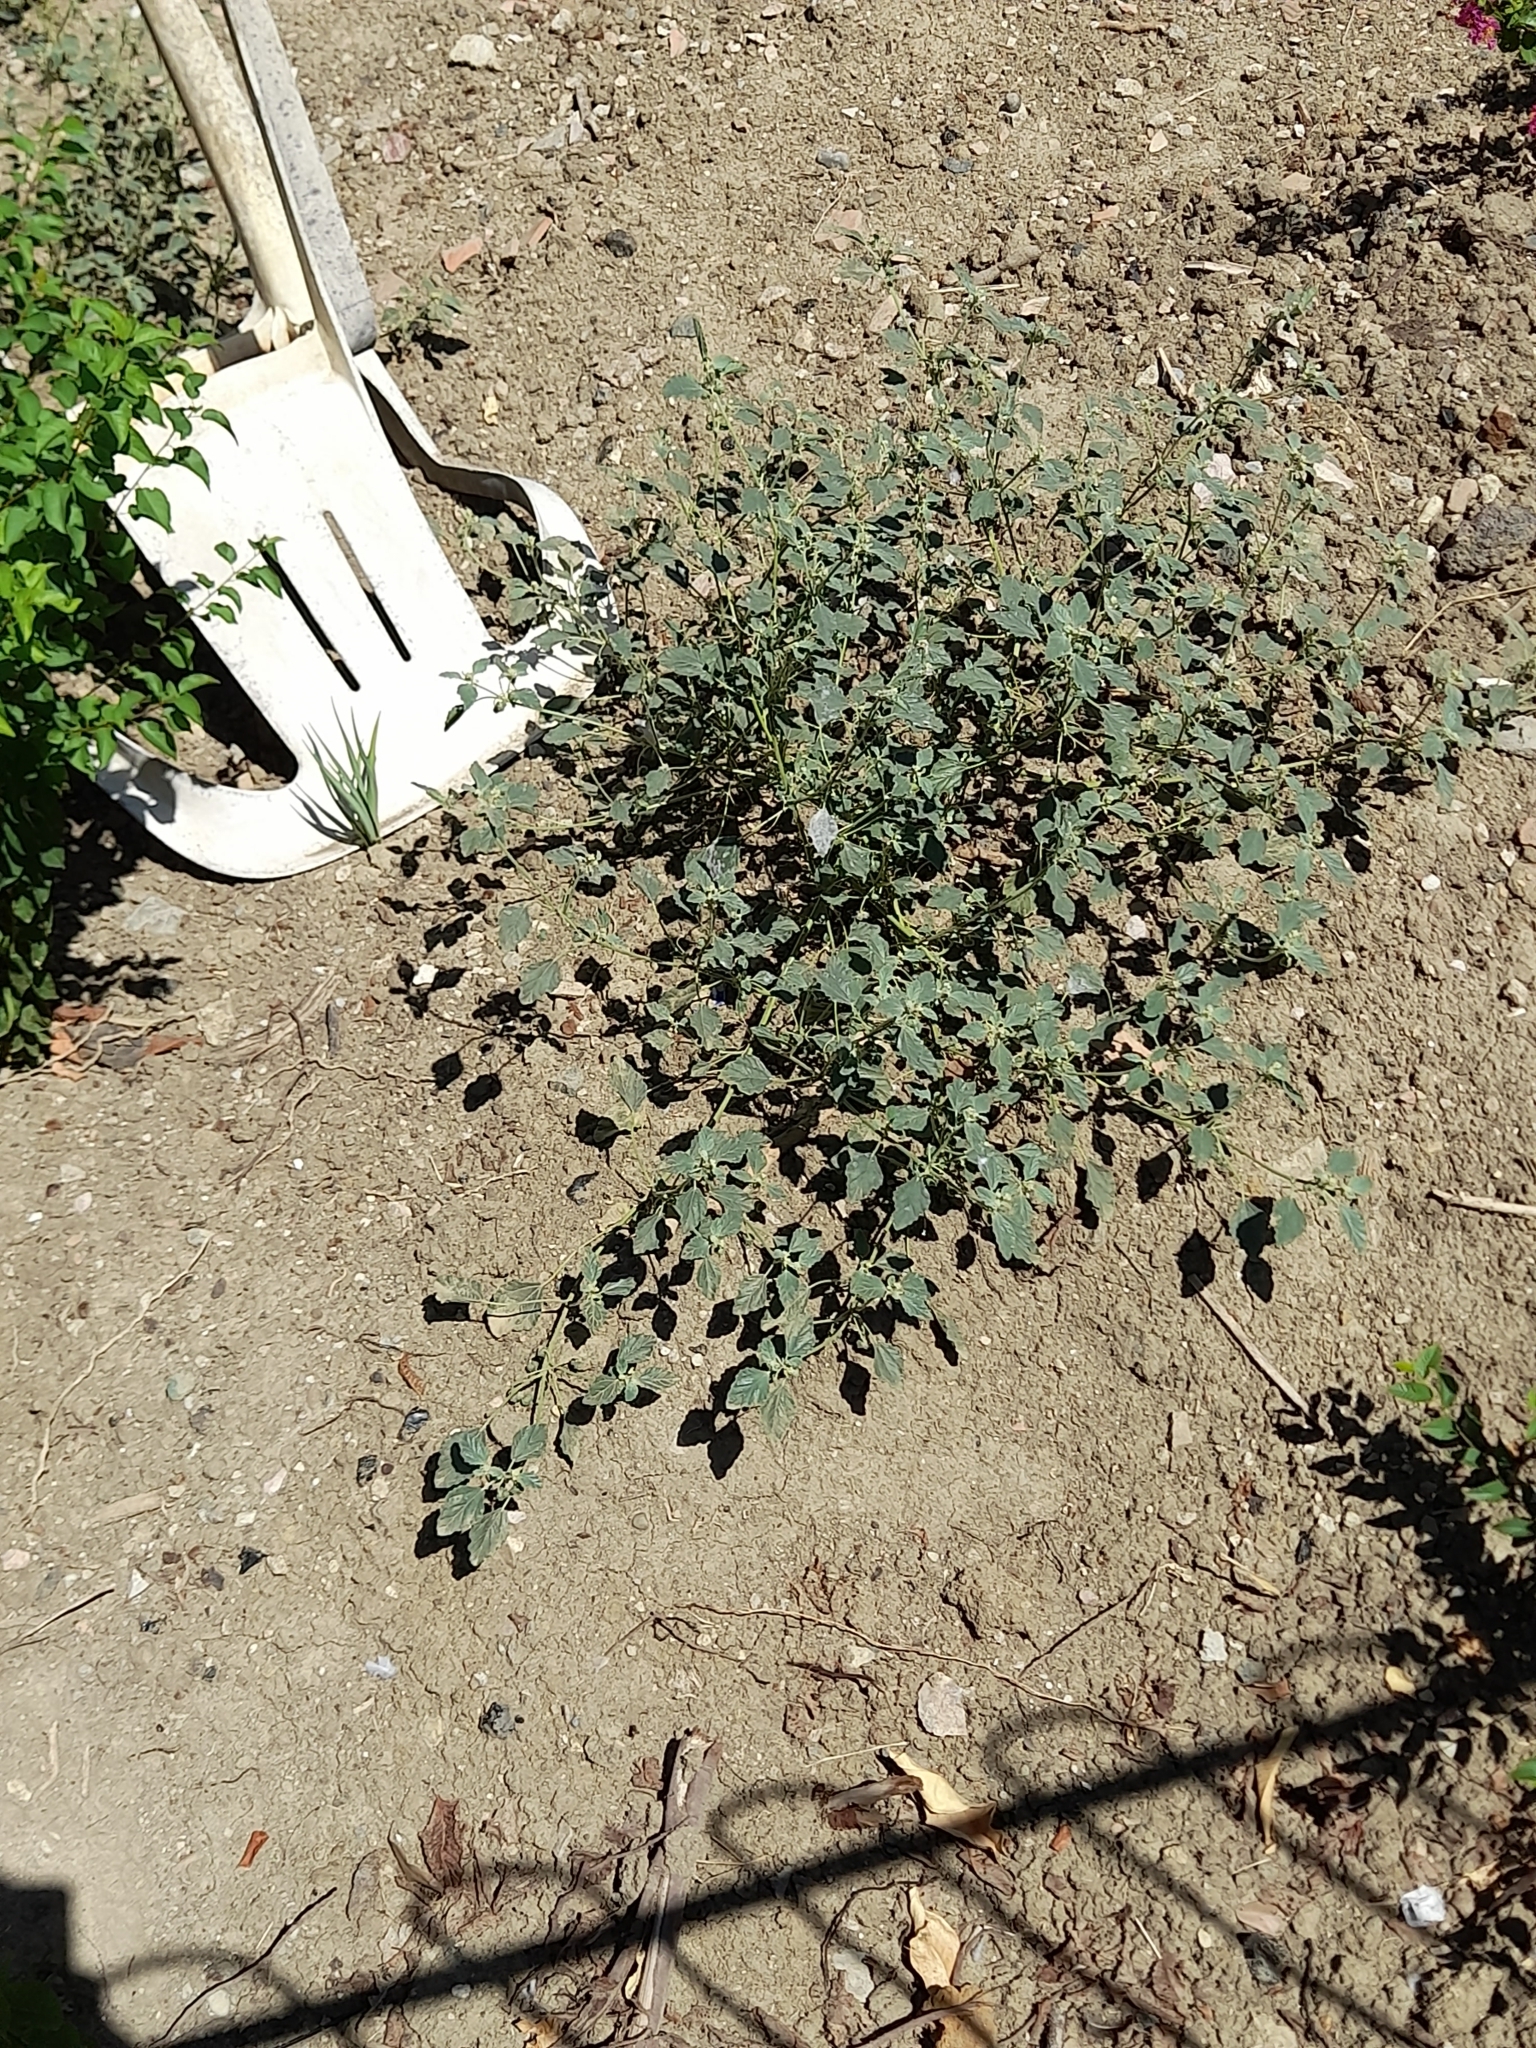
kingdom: Plantae
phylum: Tracheophyta
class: Magnoliopsida
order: Malpighiales
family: Euphorbiaceae
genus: Chrozophora
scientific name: Chrozophora tinctoria
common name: Dyer's litmus
